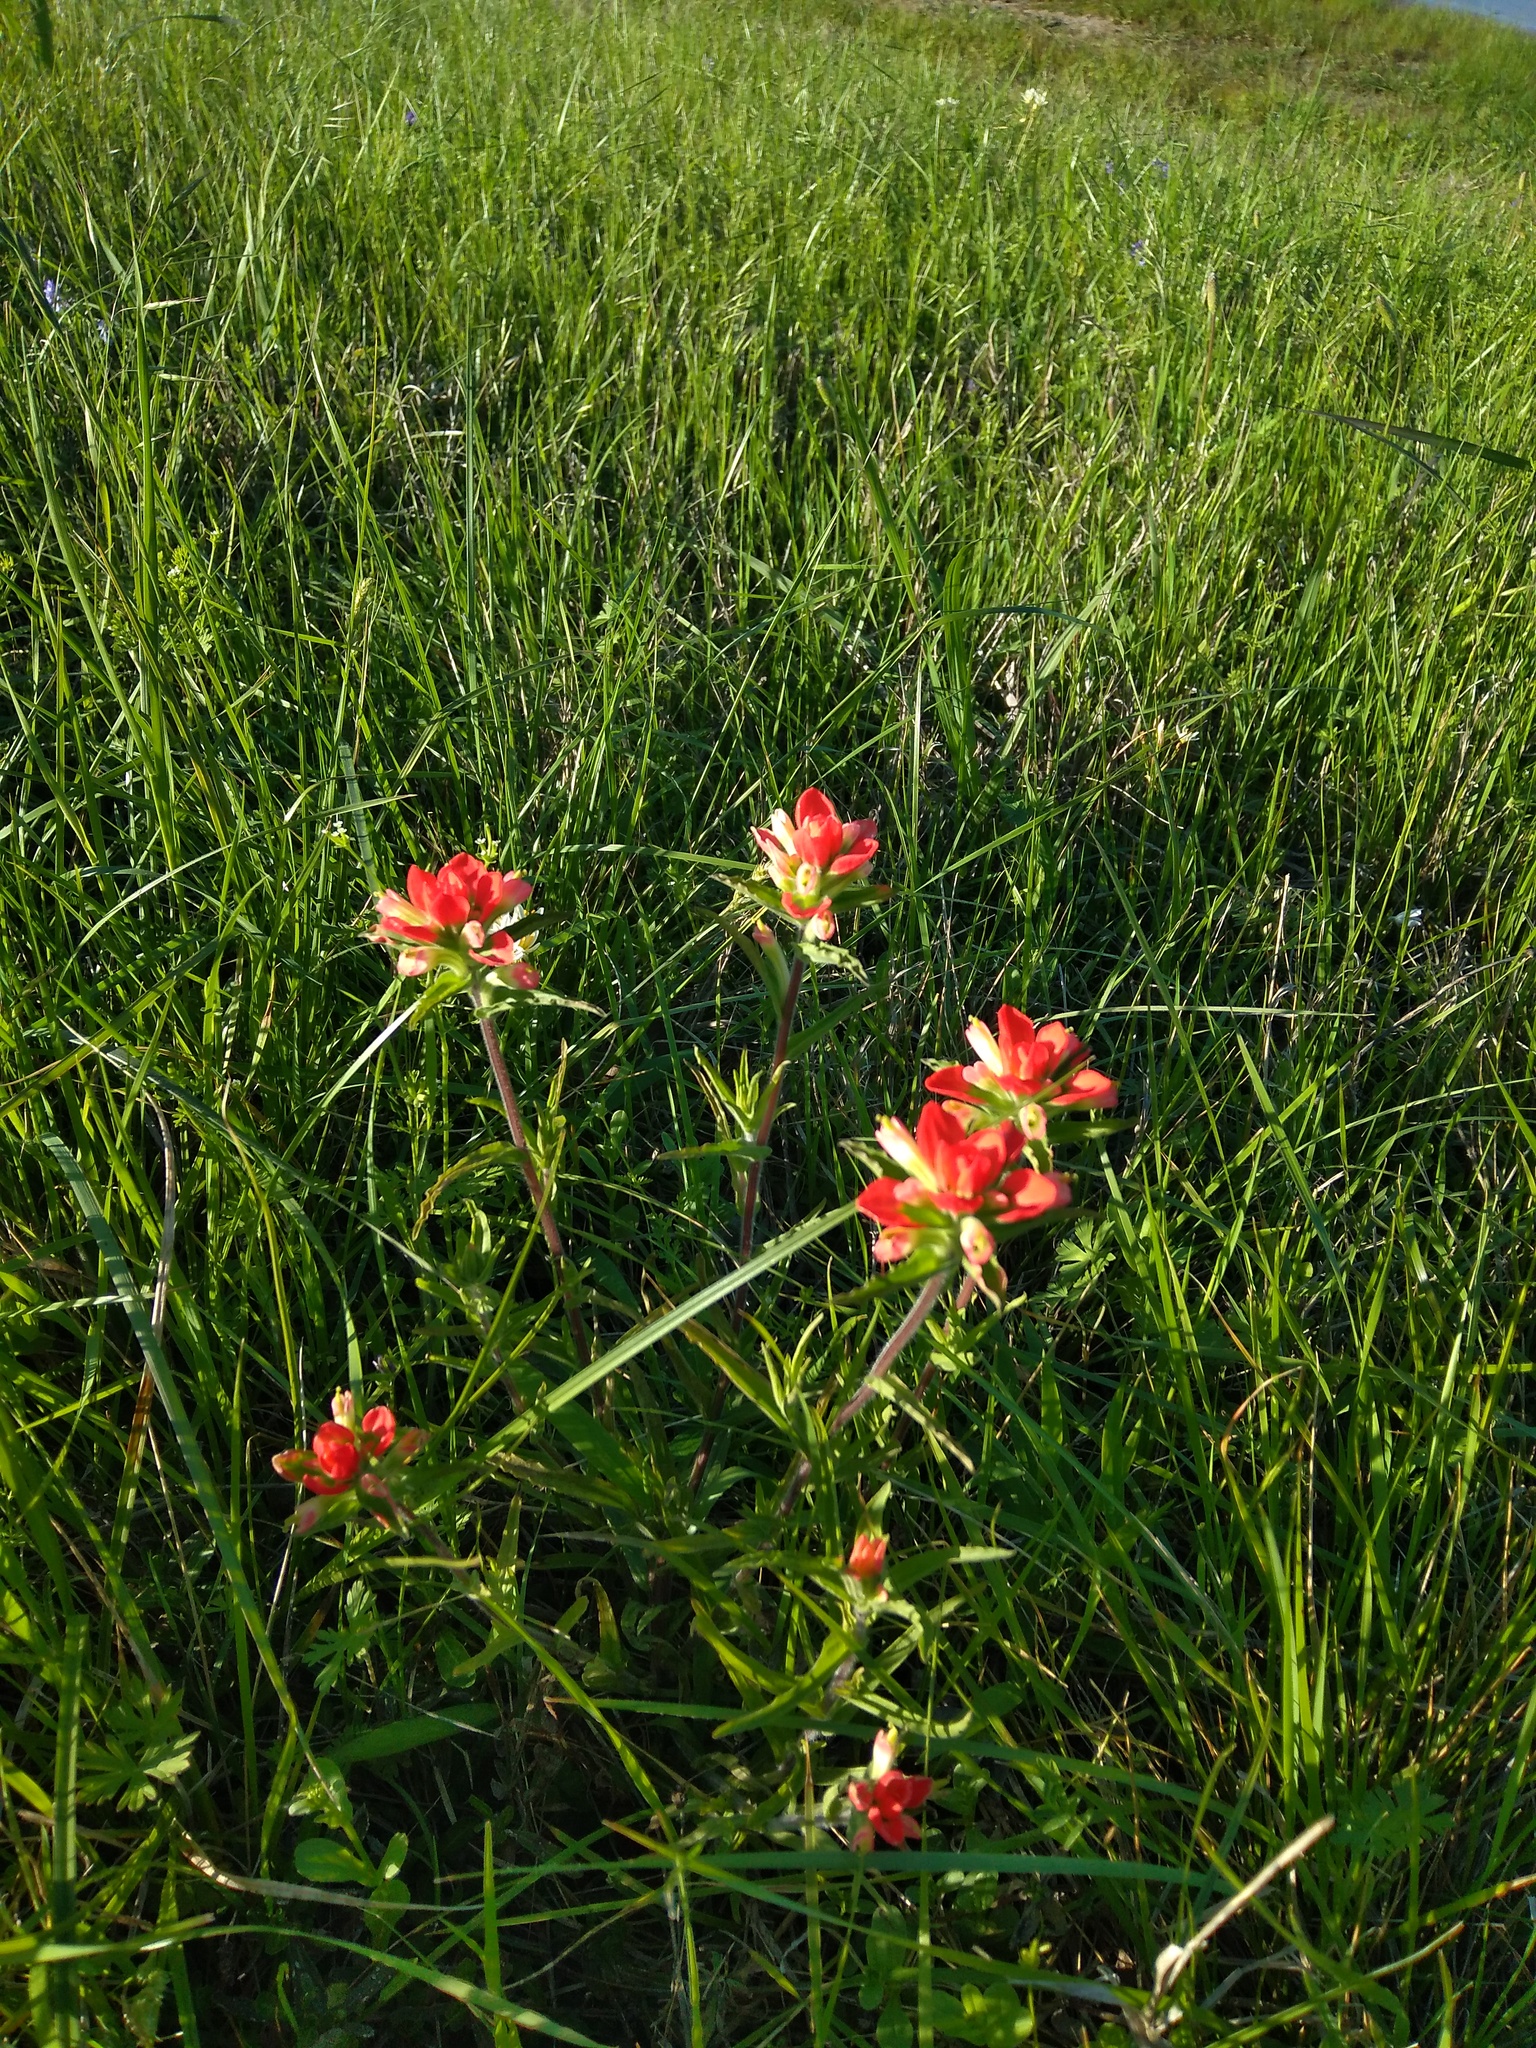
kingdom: Plantae
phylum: Tracheophyta
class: Magnoliopsida
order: Lamiales
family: Orobanchaceae
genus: Castilleja
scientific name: Castilleja indivisa
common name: Texas paintbrush
